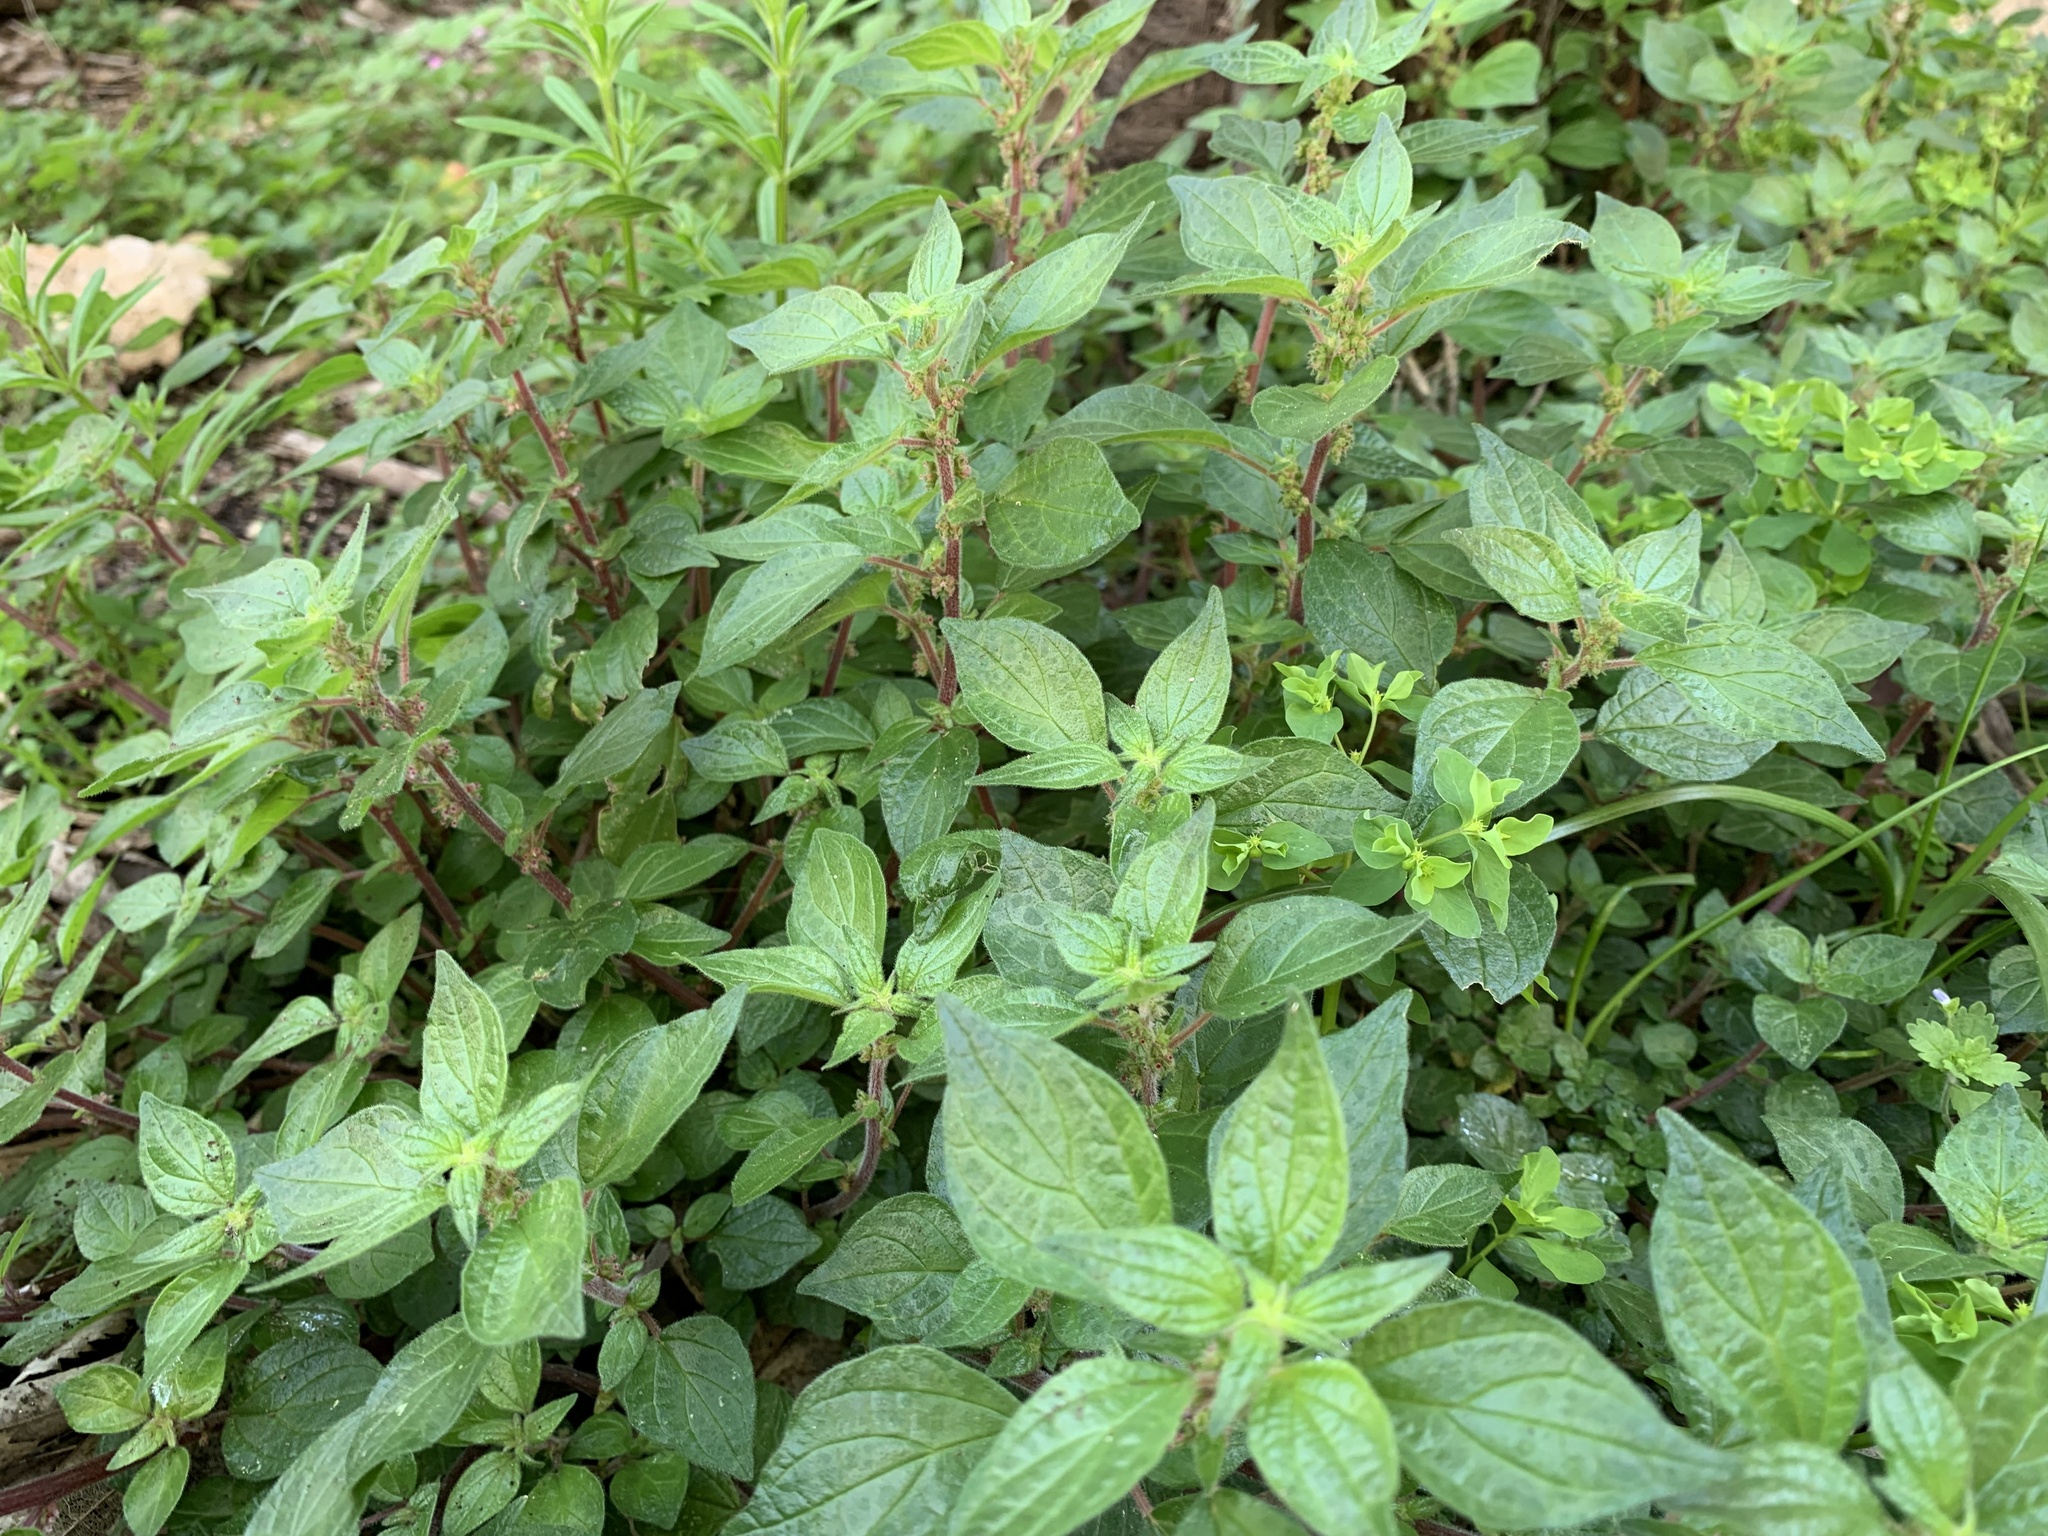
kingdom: Plantae
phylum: Tracheophyta
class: Magnoliopsida
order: Rosales
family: Urticaceae
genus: Parietaria
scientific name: Parietaria judaica
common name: Pellitory-of-the-wall
